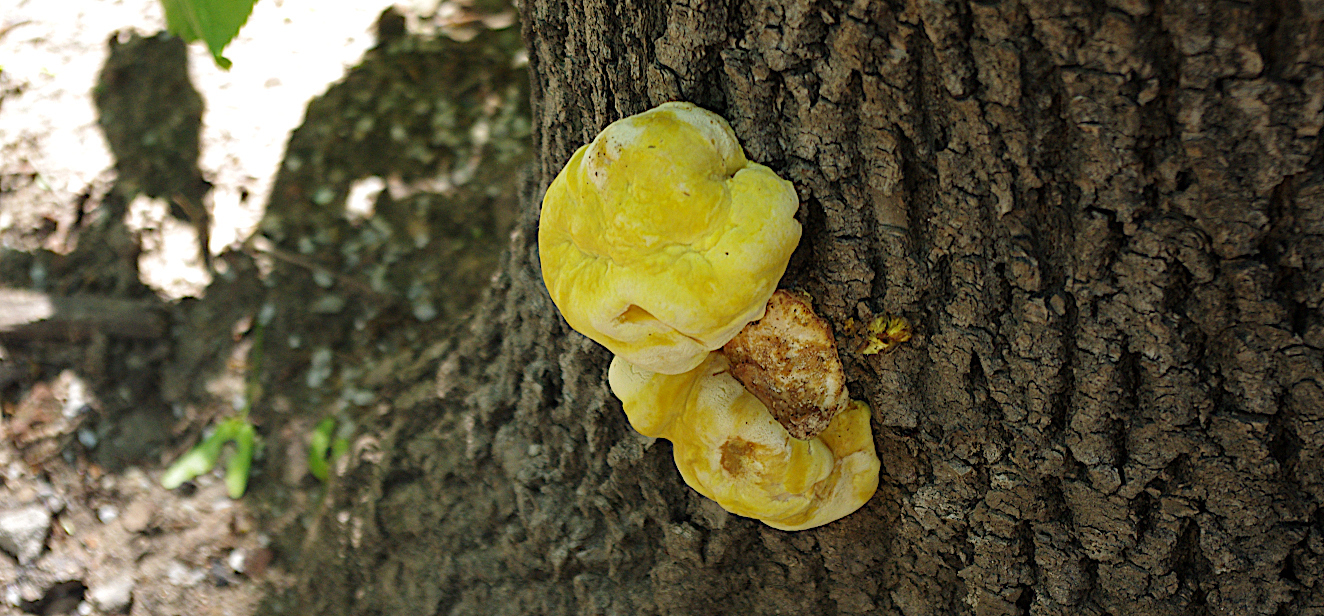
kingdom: Fungi
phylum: Basidiomycota
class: Agaricomycetes
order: Polyporales
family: Laetiporaceae
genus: Laetiporus
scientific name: Laetiporus sulphureus
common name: Chicken of the woods
